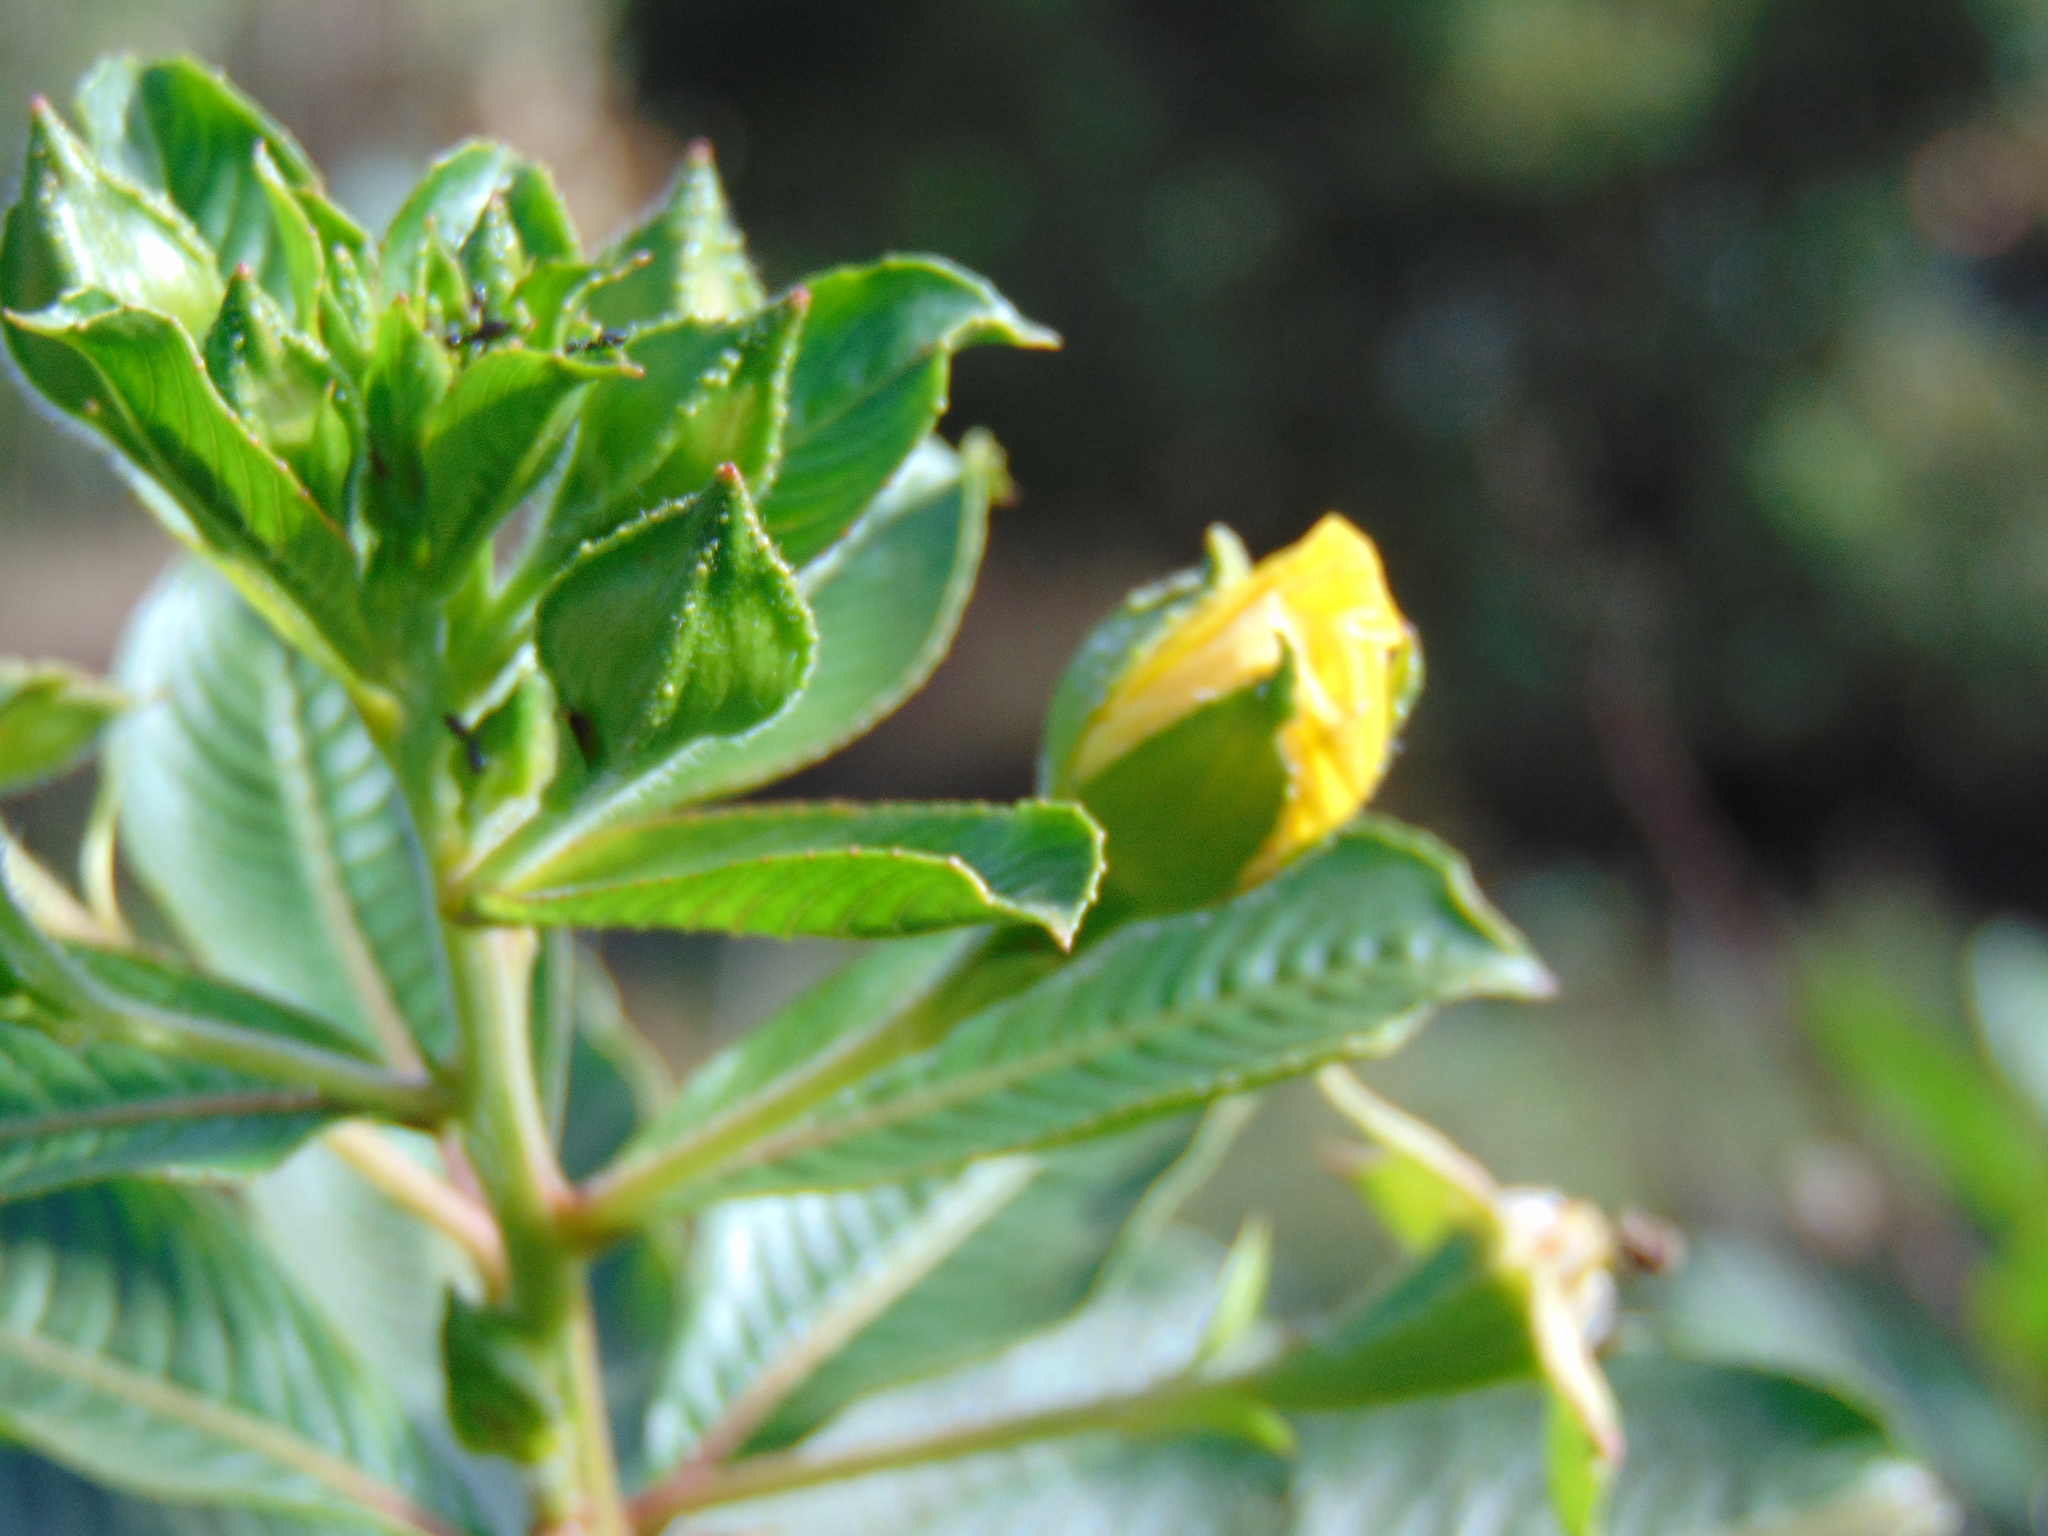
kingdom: Plantae
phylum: Tracheophyta
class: Magnoliopsida
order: Myrtales
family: Onagraceae
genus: Ludwigia
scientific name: Ludwigia peruviana
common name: Peruvian primrose-willow
